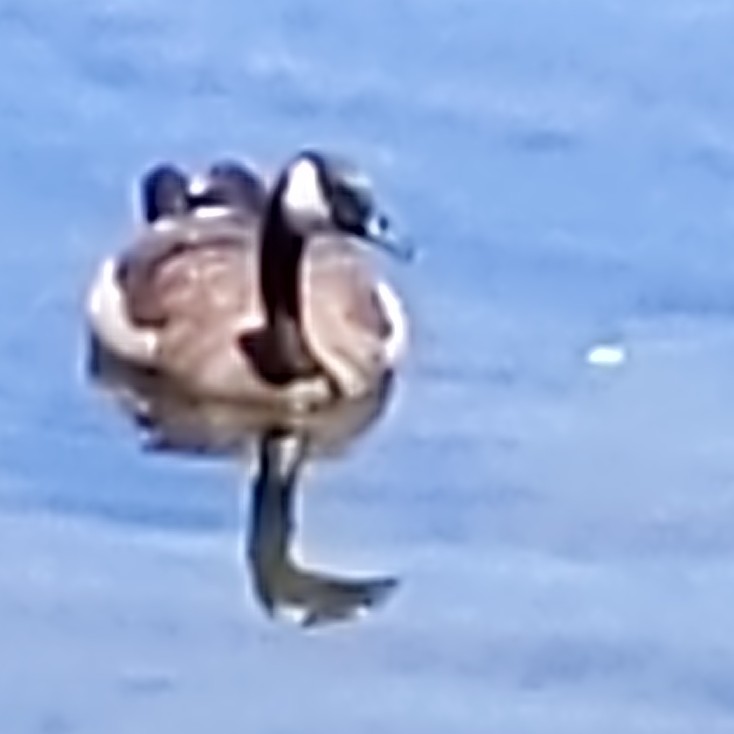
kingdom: Animalia
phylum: Chordata
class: Aves
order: Anseriformes
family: Anatidae
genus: Branta
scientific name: Branta canadensis
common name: Canada goose
